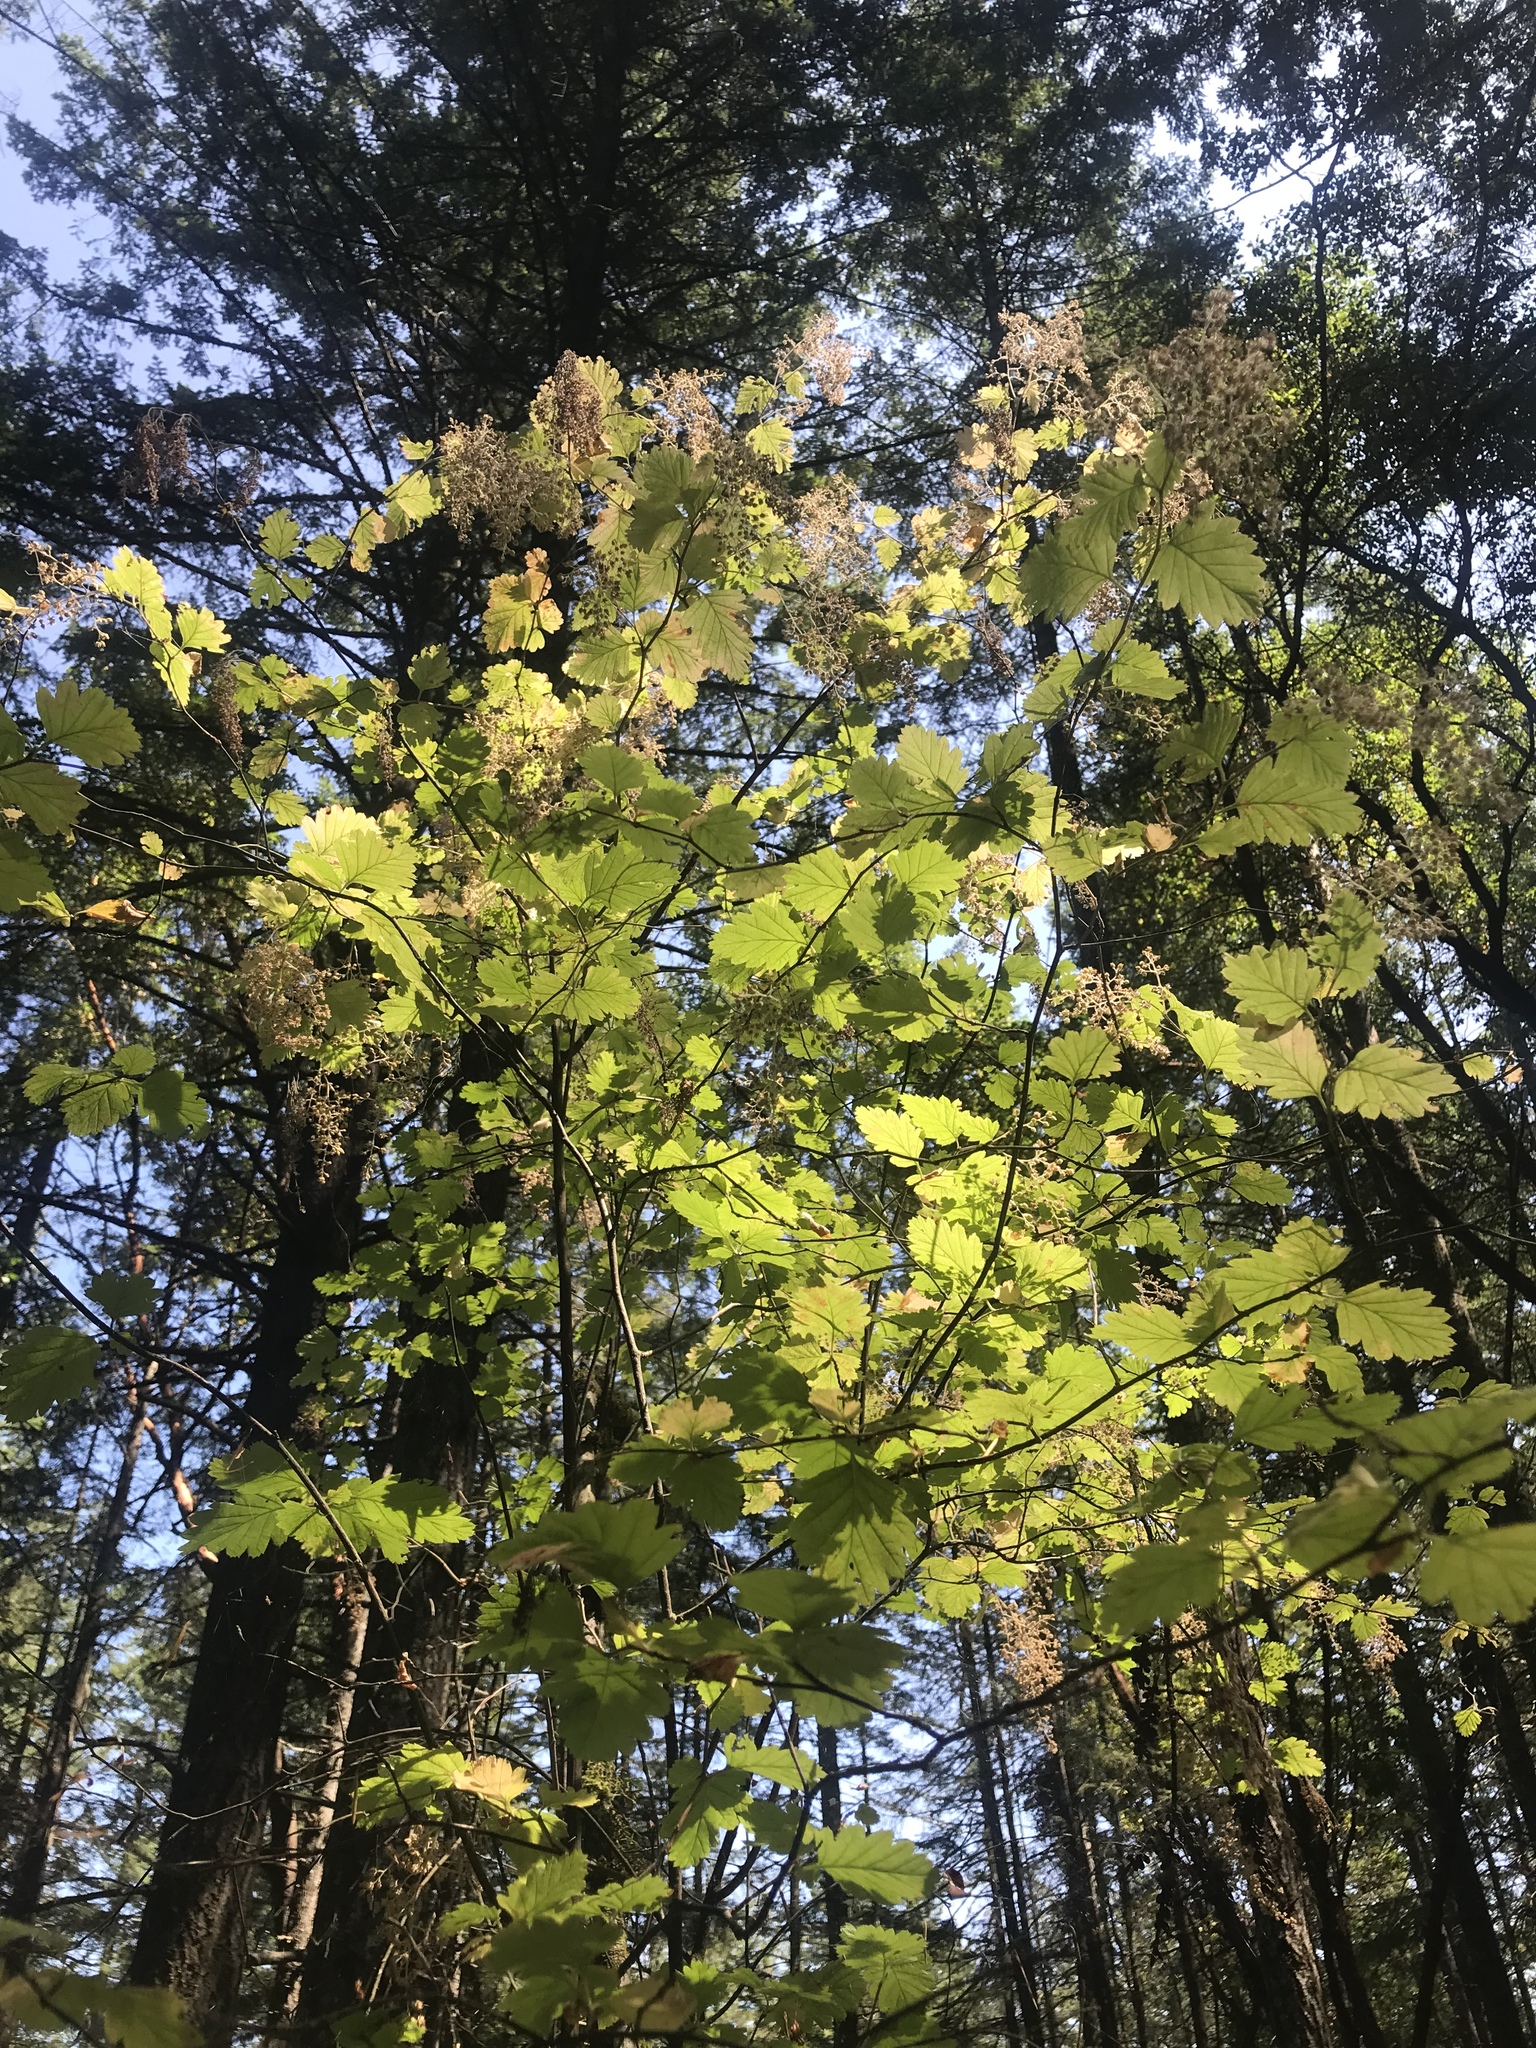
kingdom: Plantae
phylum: Tracheophyta
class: Magnoliopsida
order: Rosales
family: Rosaceae
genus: Holodiscus
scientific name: Holodiscus discolor
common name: Oceanspray
